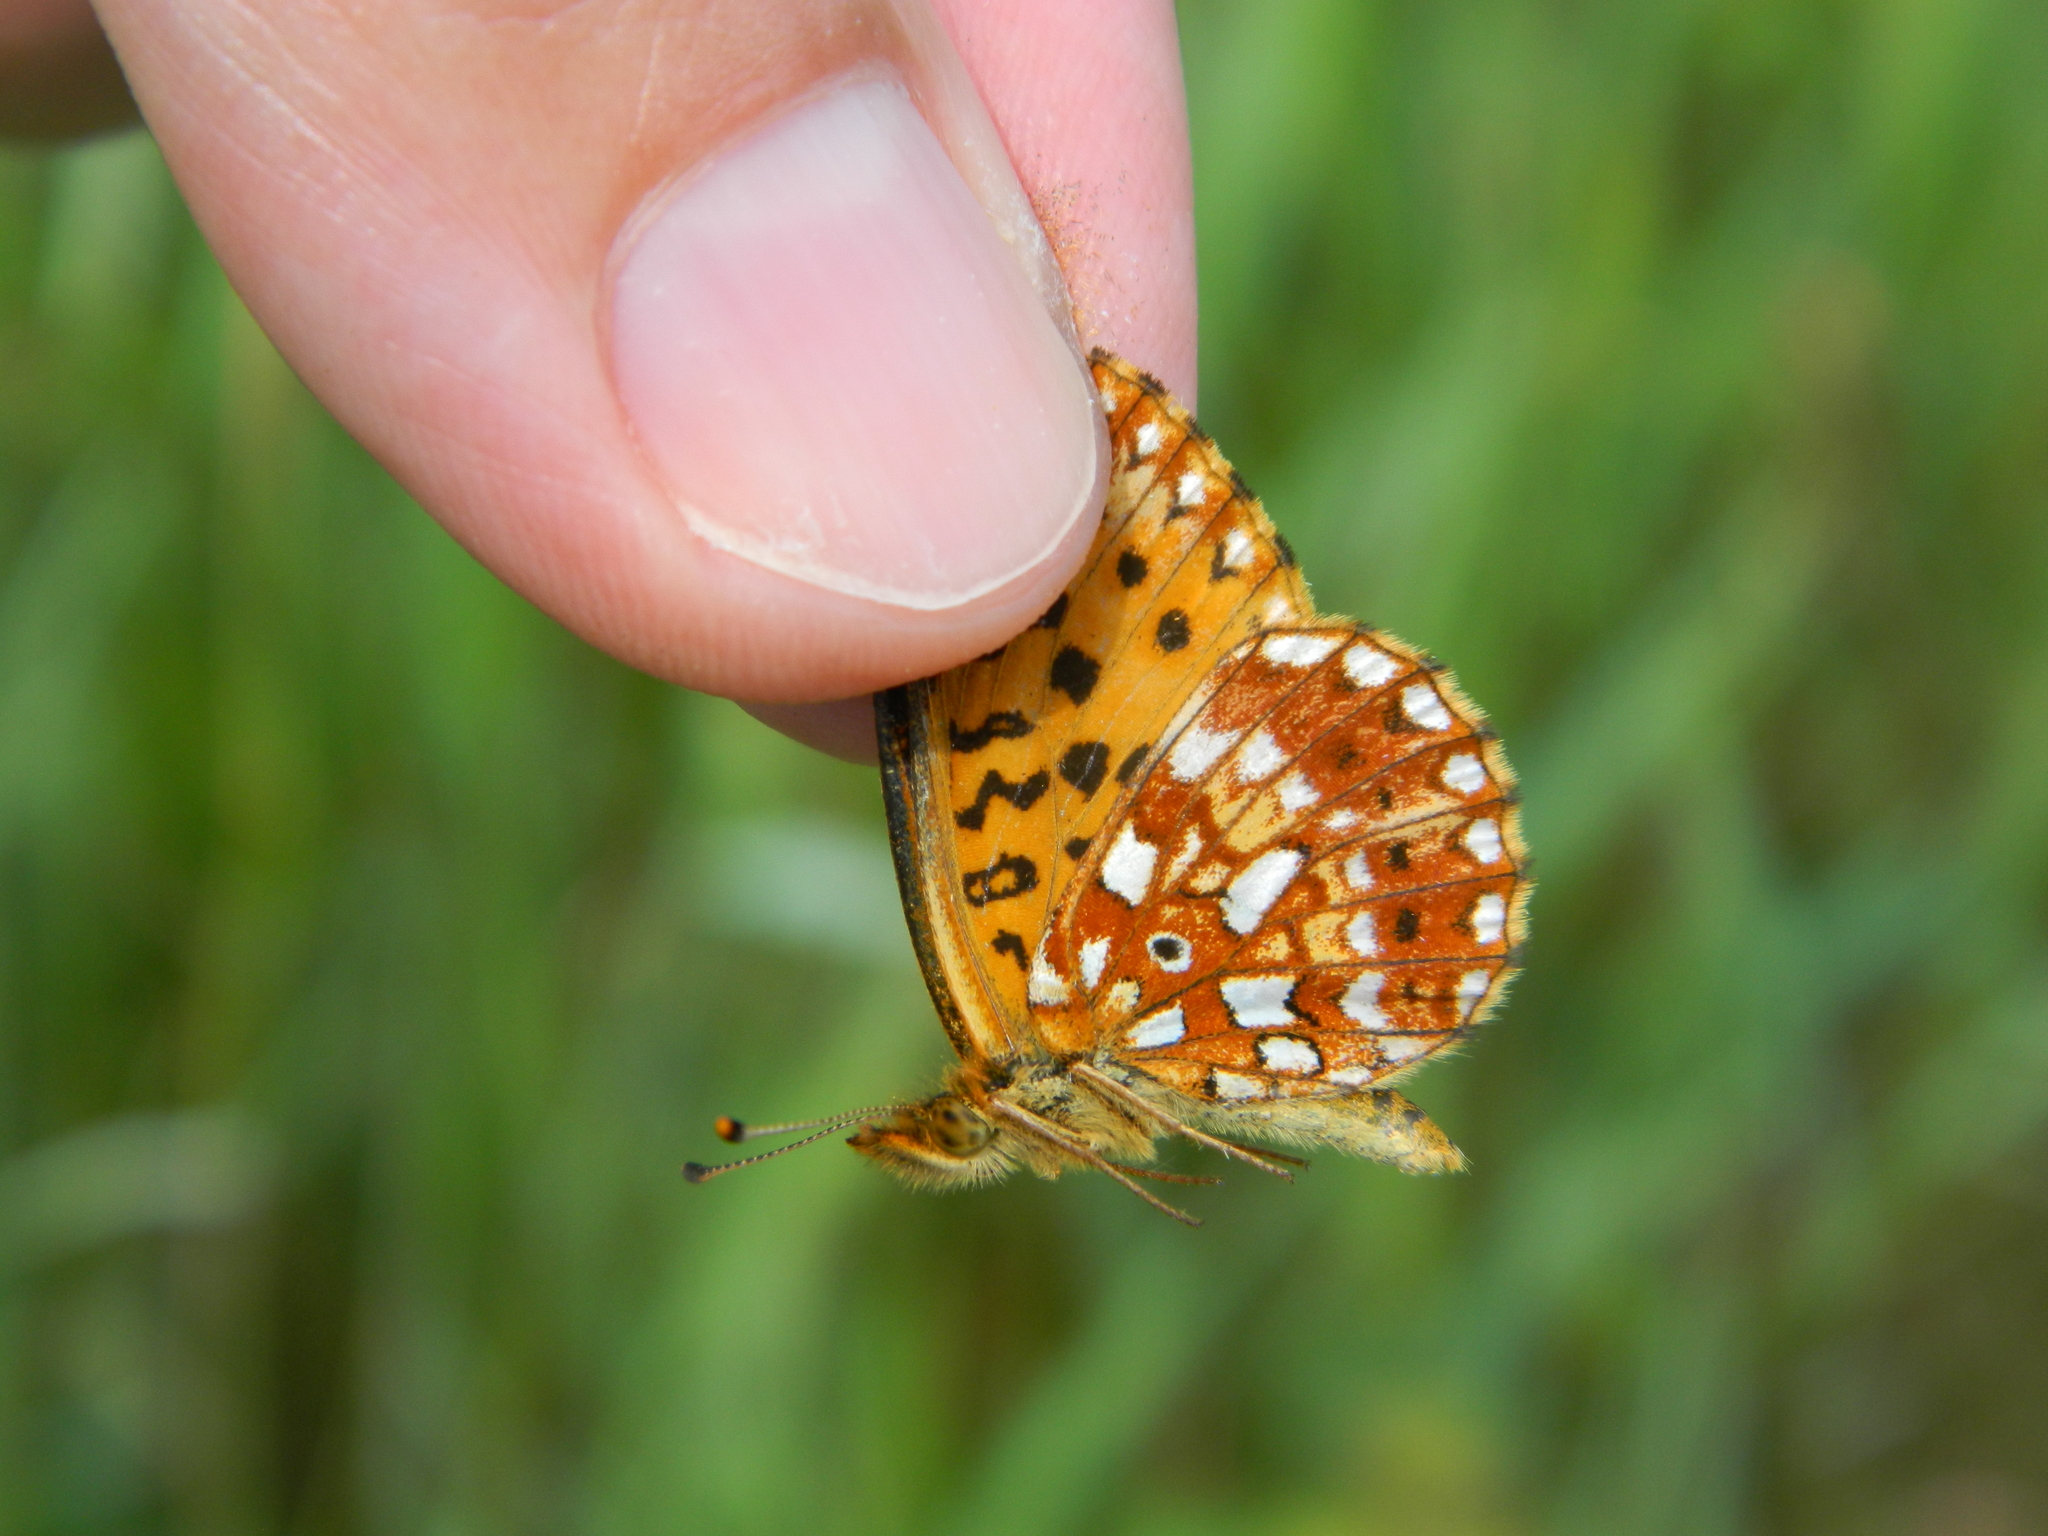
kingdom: Animalia
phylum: Arthropoda
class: Insecta
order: Lepidoptera
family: Nymphalidae
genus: Boloria
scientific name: Boloria
